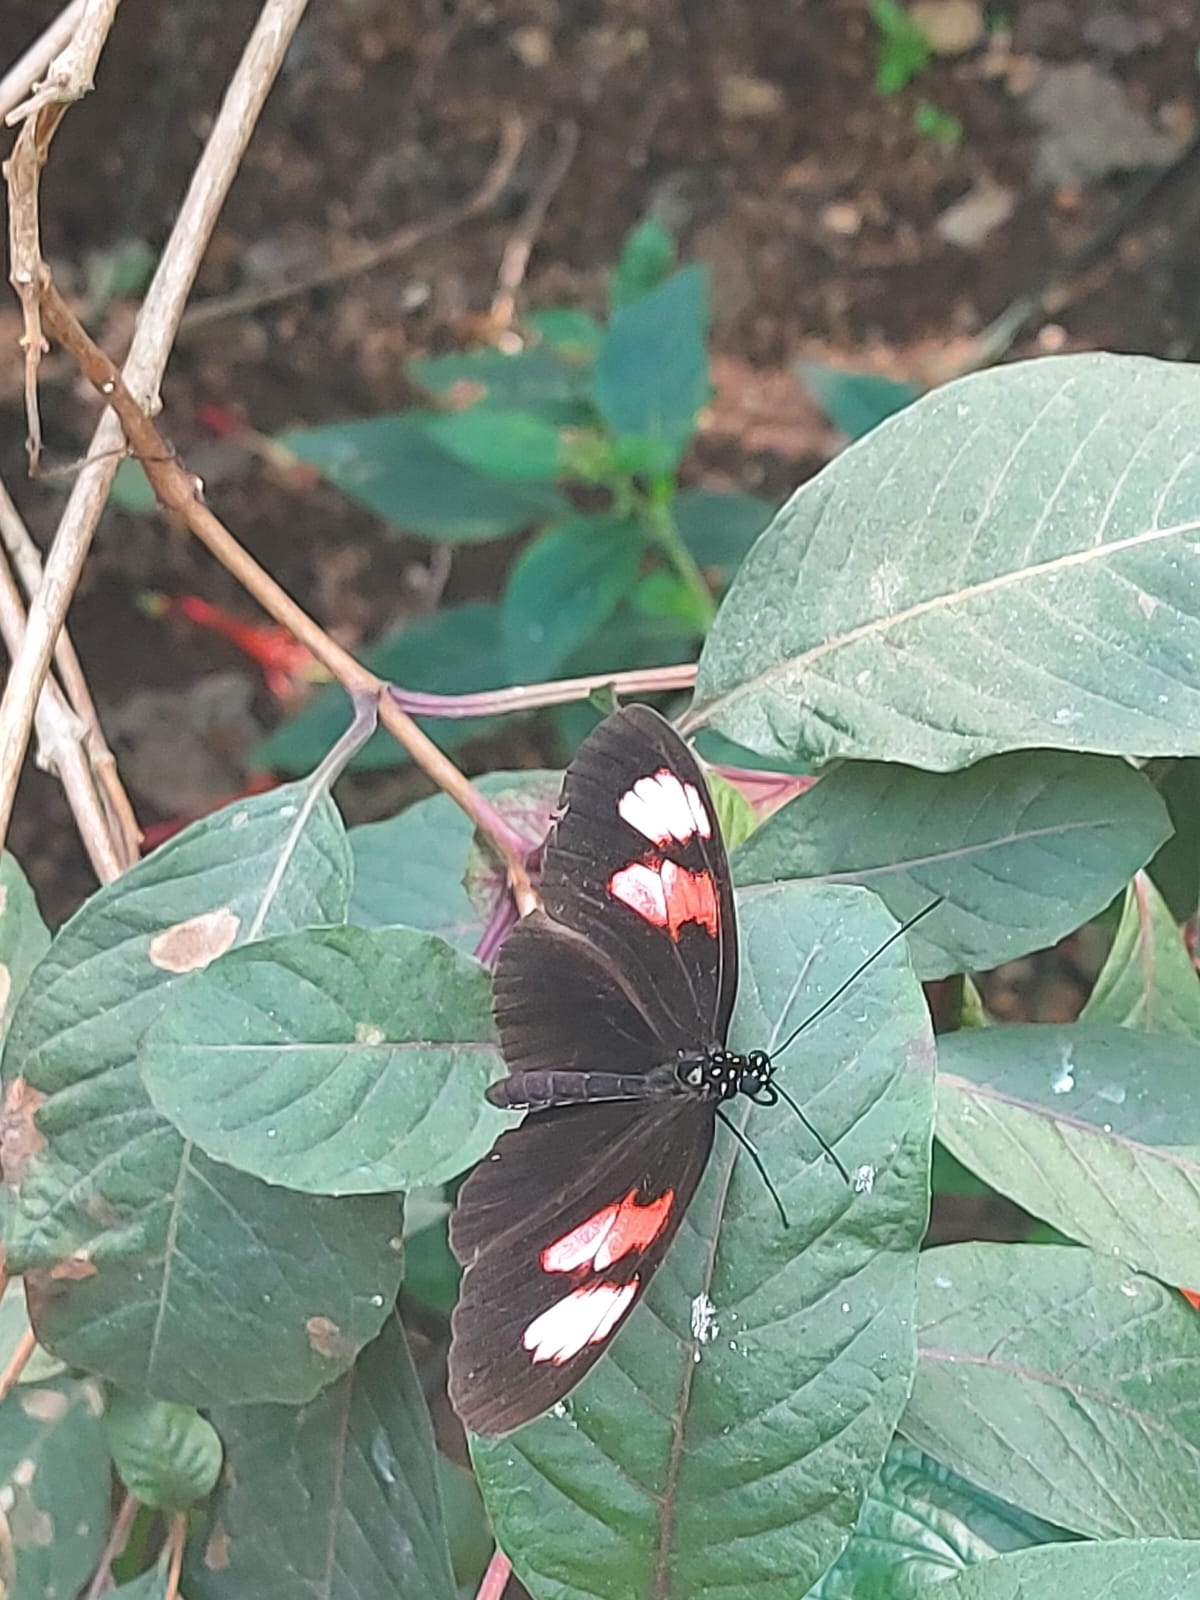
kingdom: Animalia
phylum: Arthropoda
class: Insecta
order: Lepidoptera
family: Nymphalidae
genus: Heliconius
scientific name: Heliconius melpomene
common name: Postman
